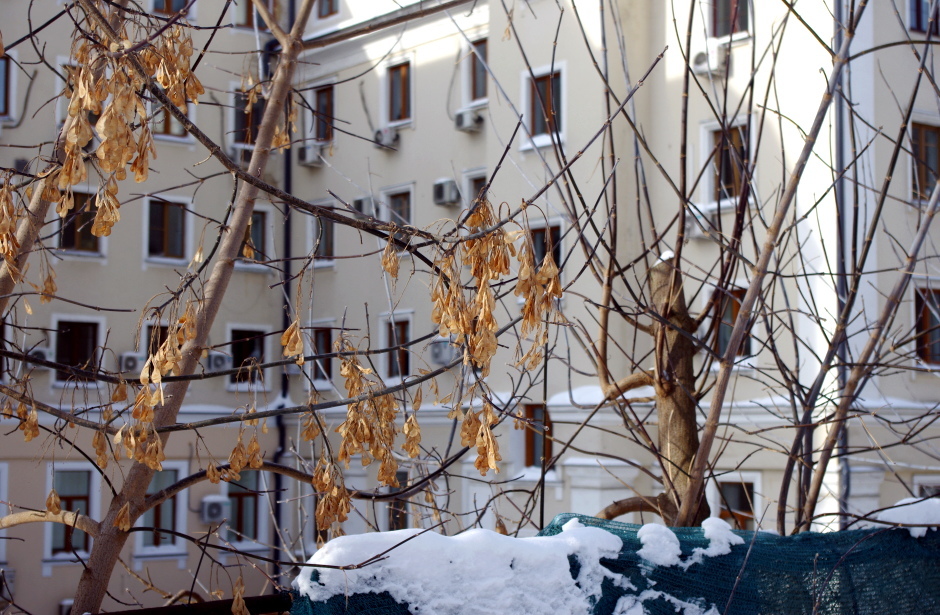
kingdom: Plantae
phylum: Tracheophyta
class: Magnoliopsida
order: Sapindales
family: Sapindaceae
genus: Acer
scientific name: Acer negundo
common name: Ashleaf maple
